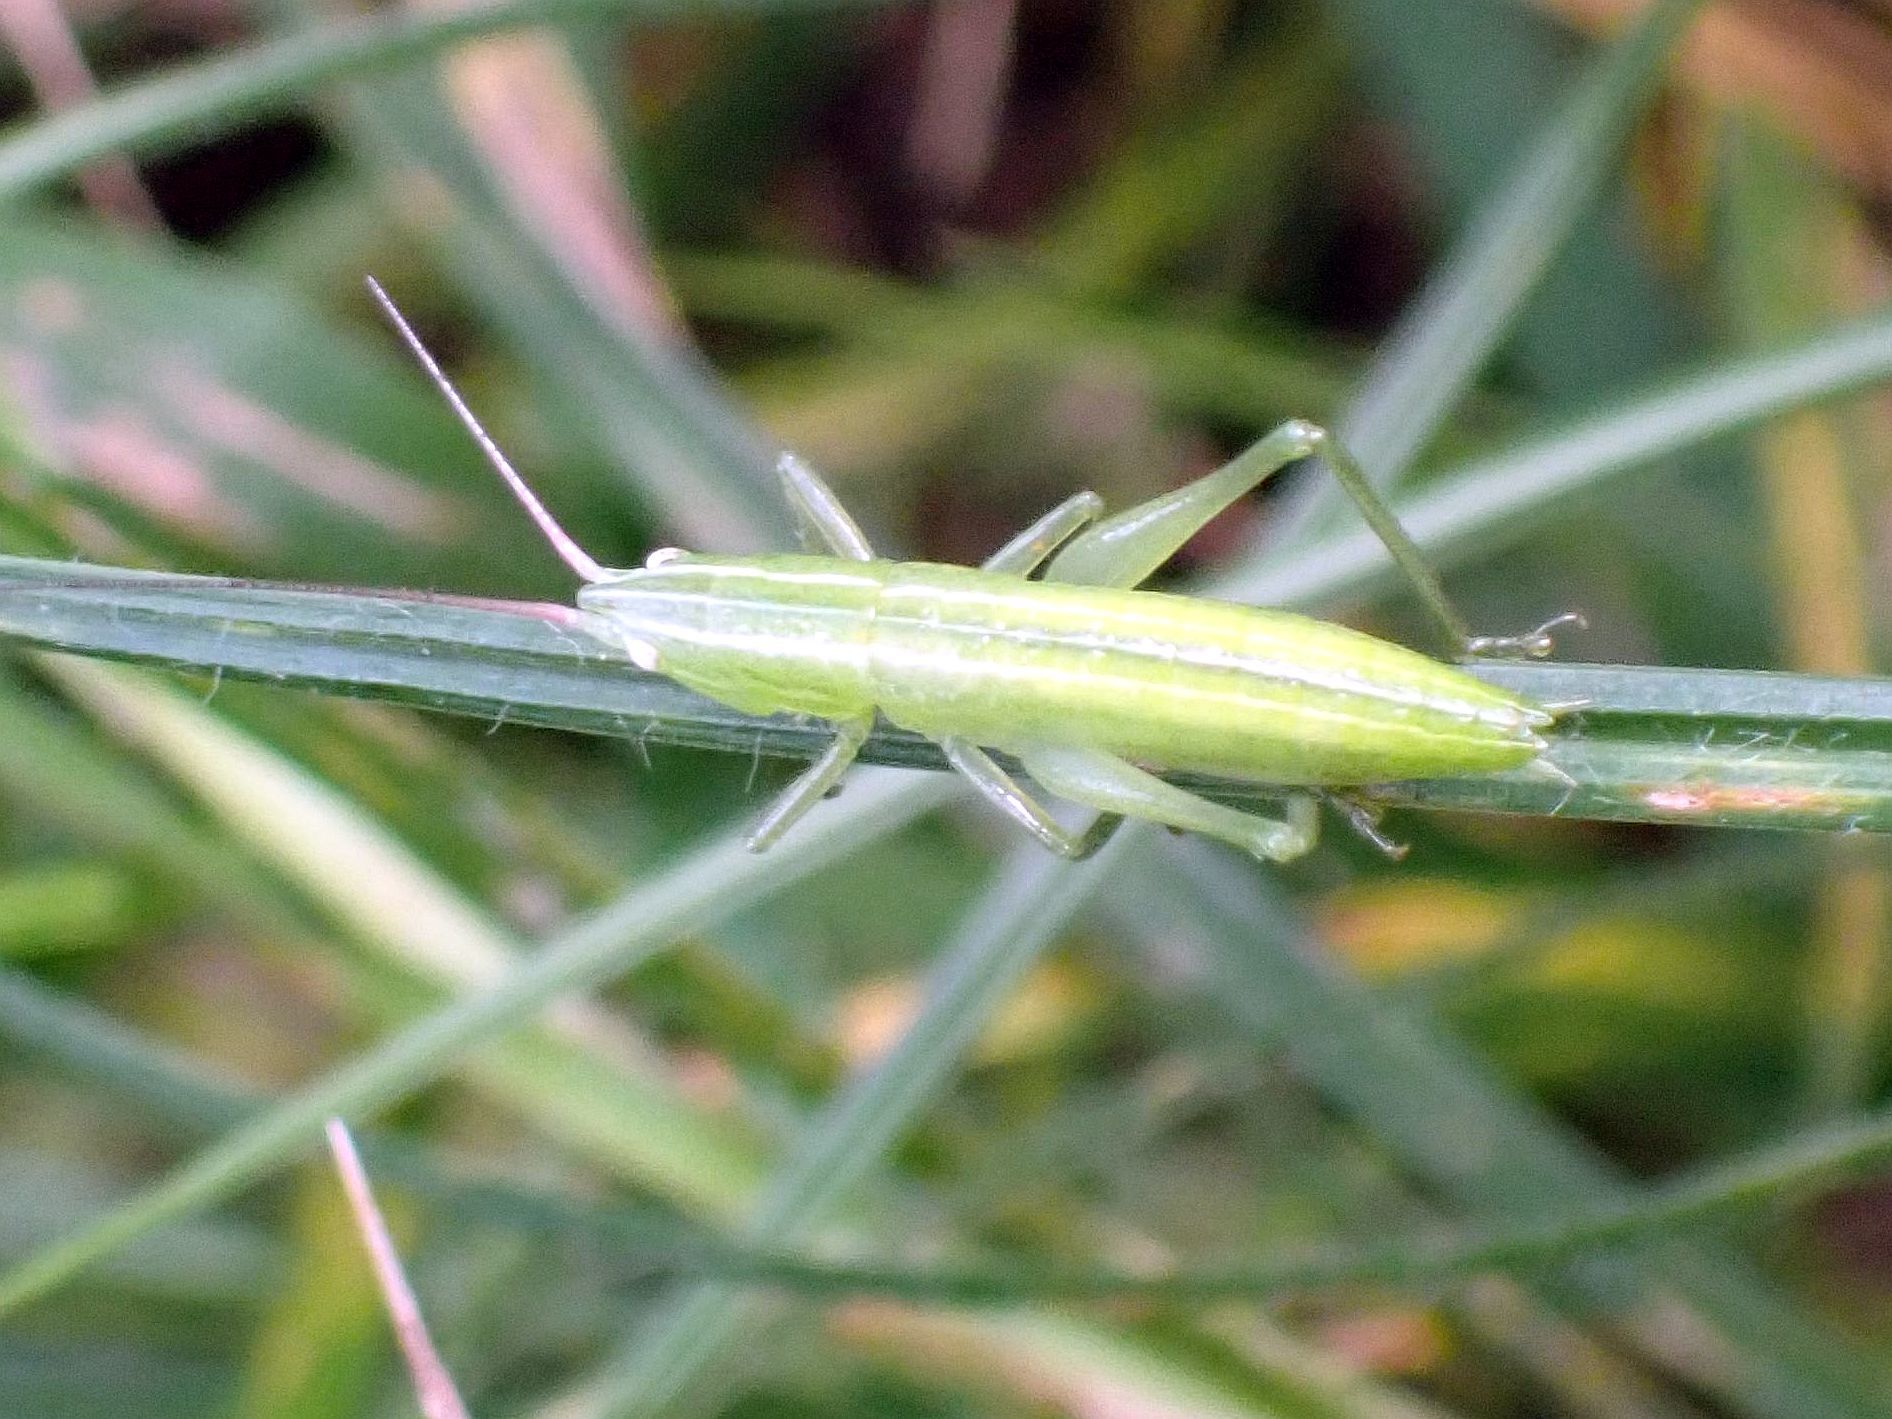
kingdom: Animalia
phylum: Arthropoda
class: Insecta
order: Orthoptera
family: Tettigoniidae
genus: Ruspolia
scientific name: Ruspolia nitidula
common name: Large conehead
